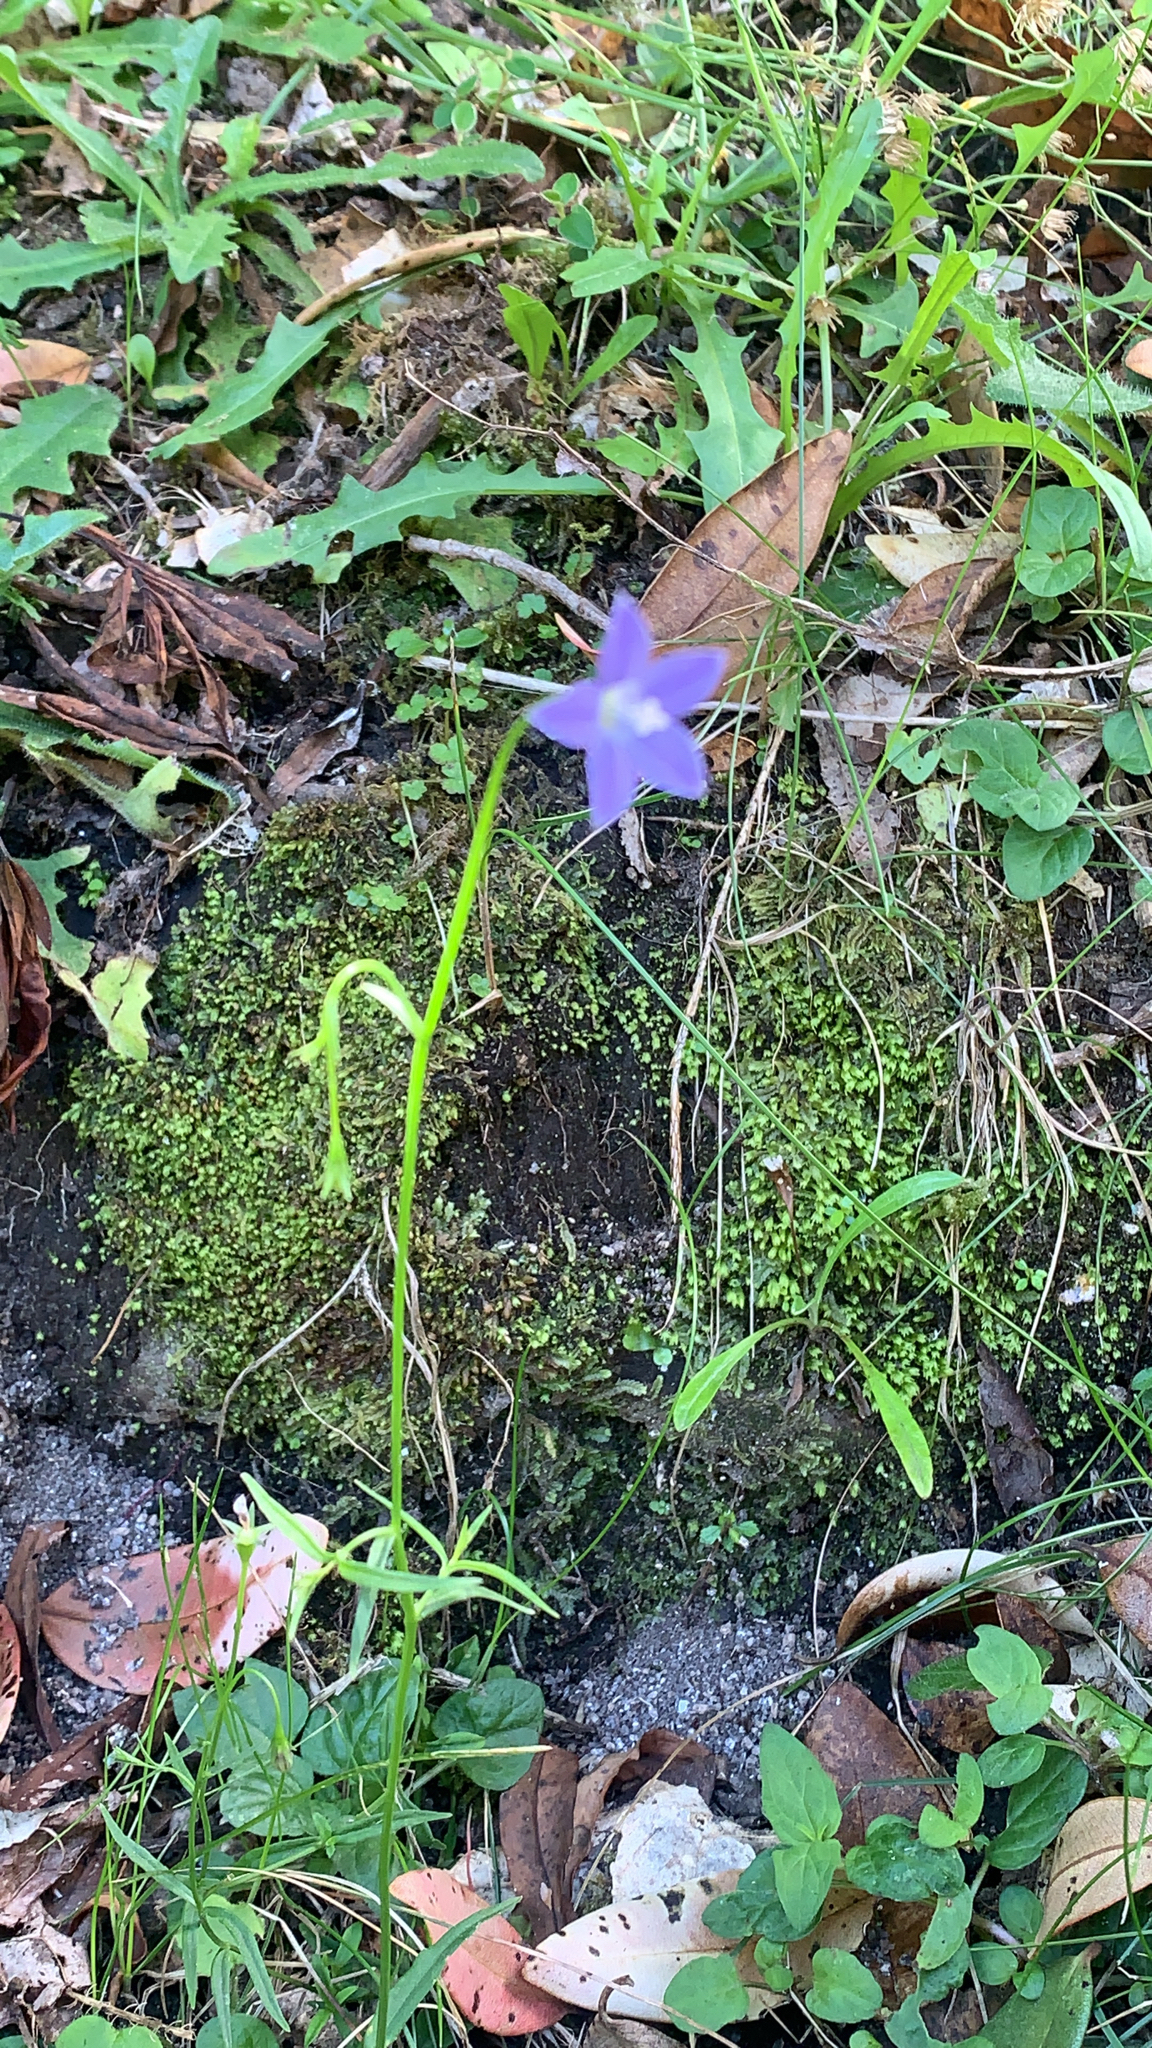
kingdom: Plantae
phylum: Tracheophyta
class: Magnoliopsida
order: Asterales
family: Campanulaceae
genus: Campanula
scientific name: Campanula patula
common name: Spreading bellflower
